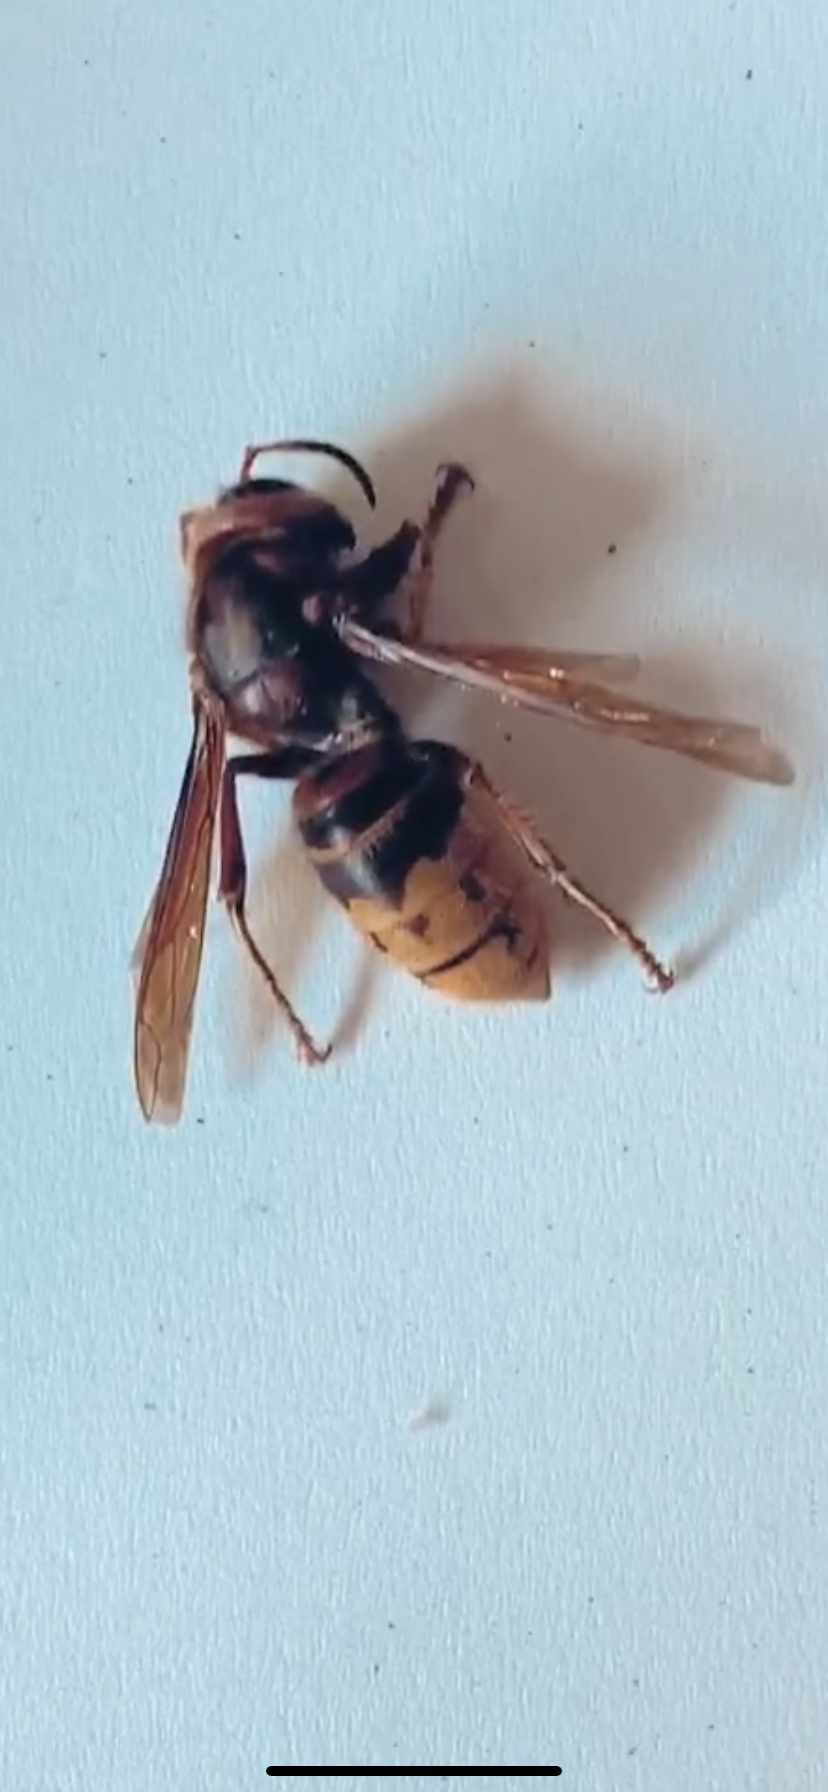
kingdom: Animalia
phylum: Arthropoda
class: Insecta
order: Hymenoptera
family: Vespidae
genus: Vespa
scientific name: Vespa crabro
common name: Hornet
